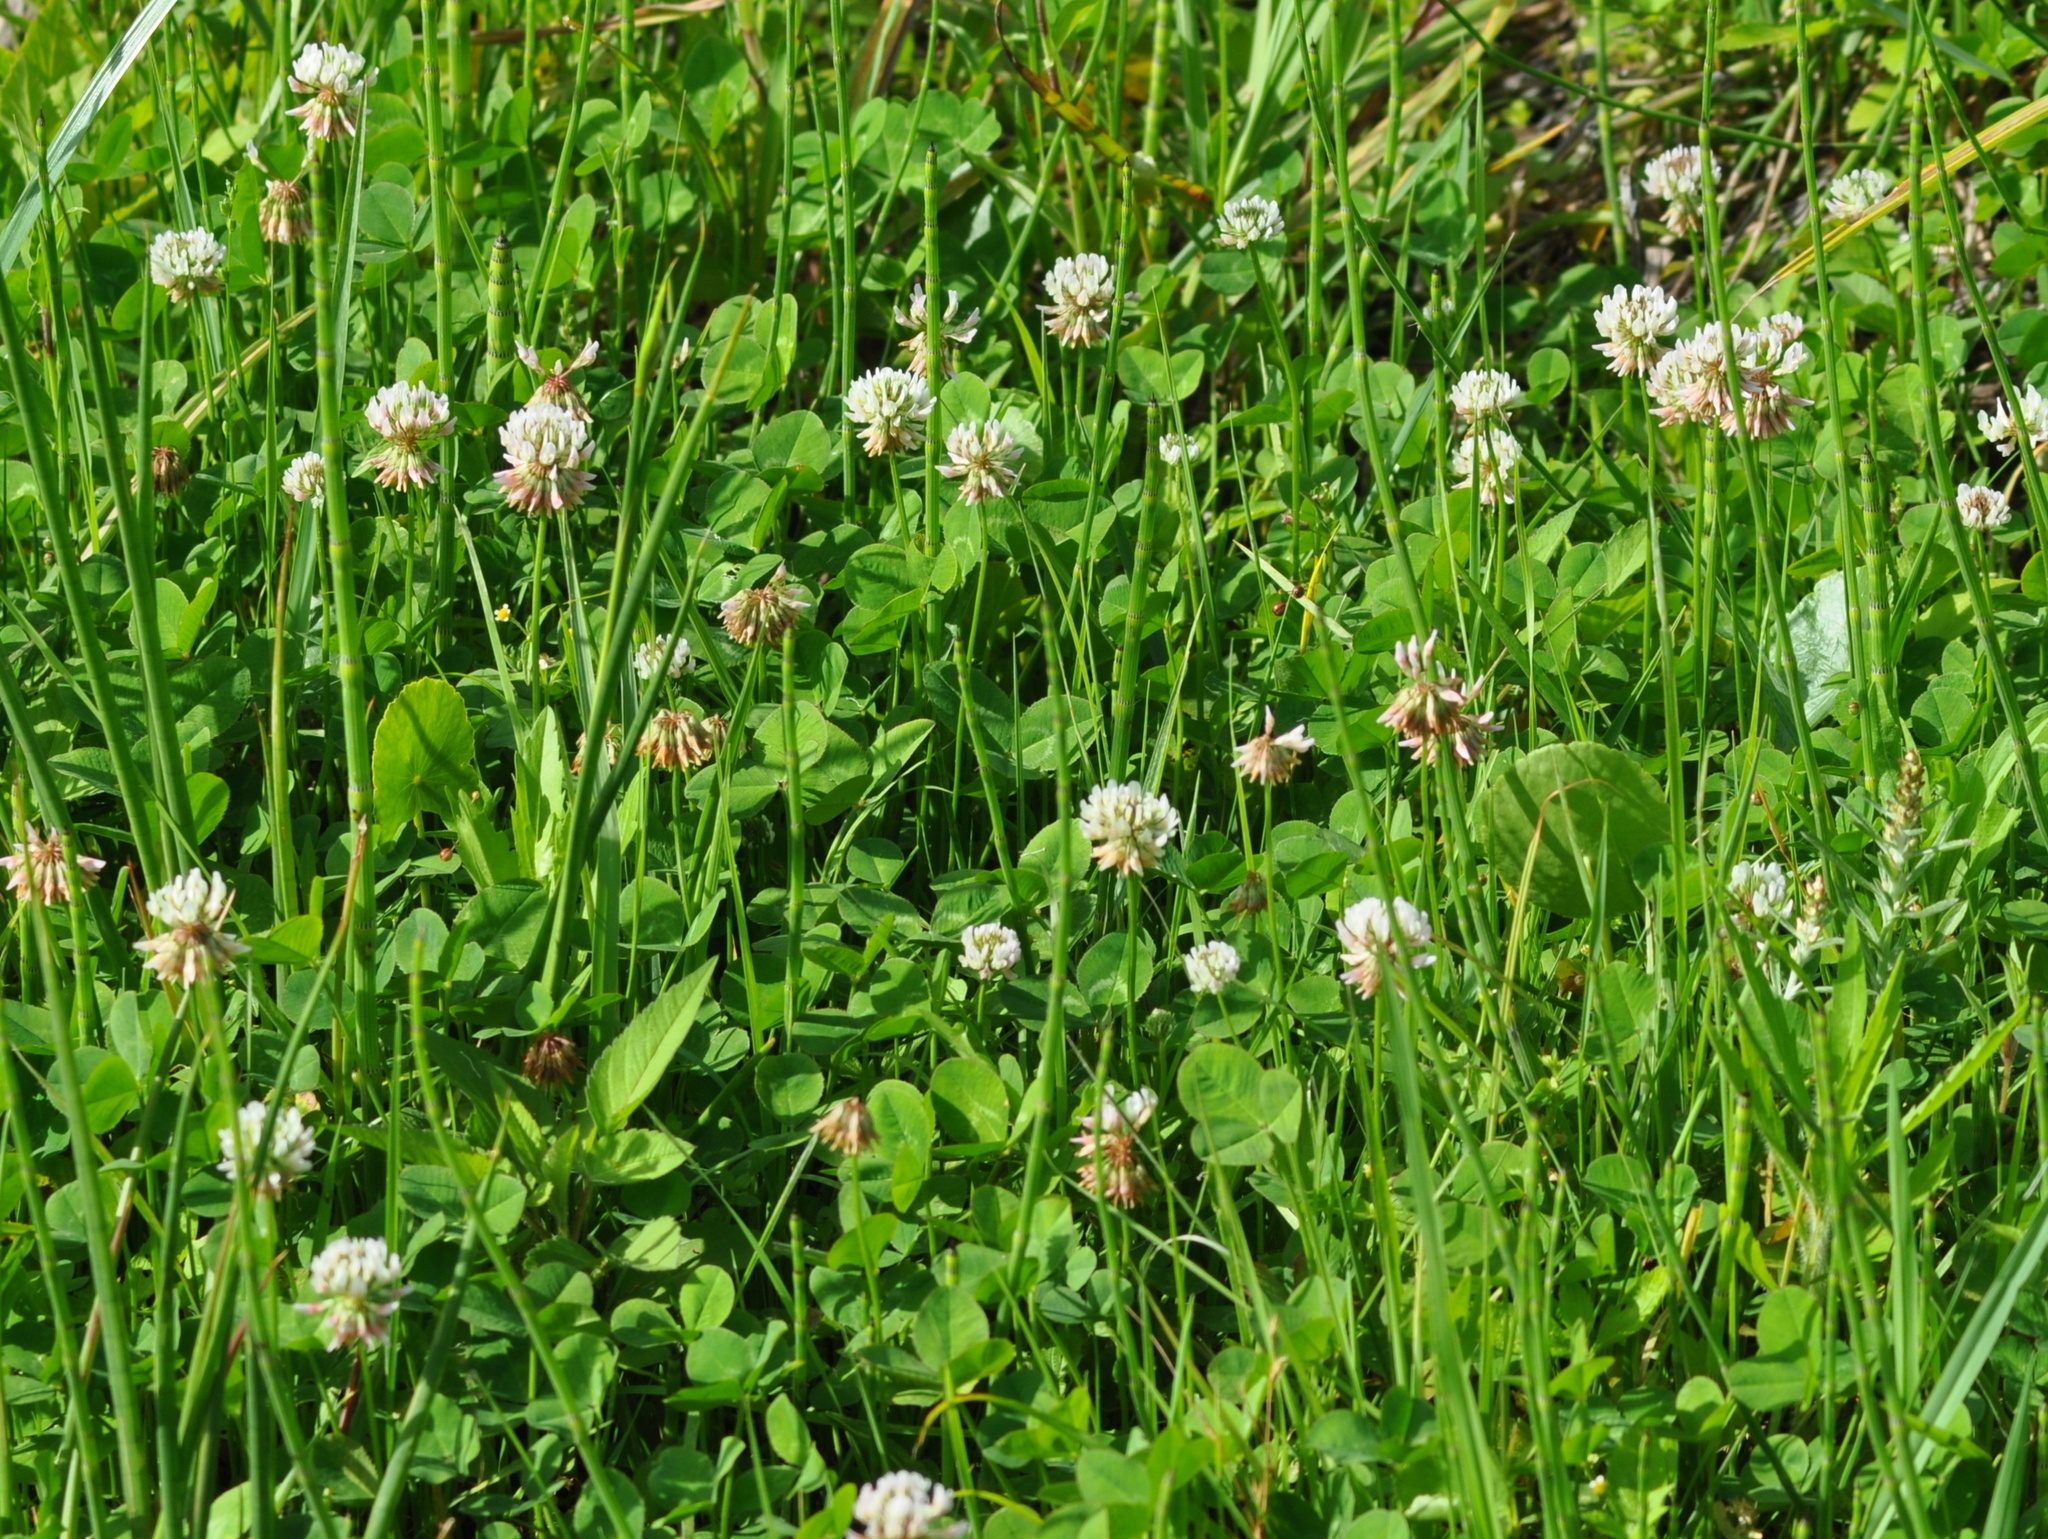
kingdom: Plantae
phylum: Tracheophyta
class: Magnoliopsida
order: Fabales
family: Fabaceae
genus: Trifolium
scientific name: Trifolium repens
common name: White clover
